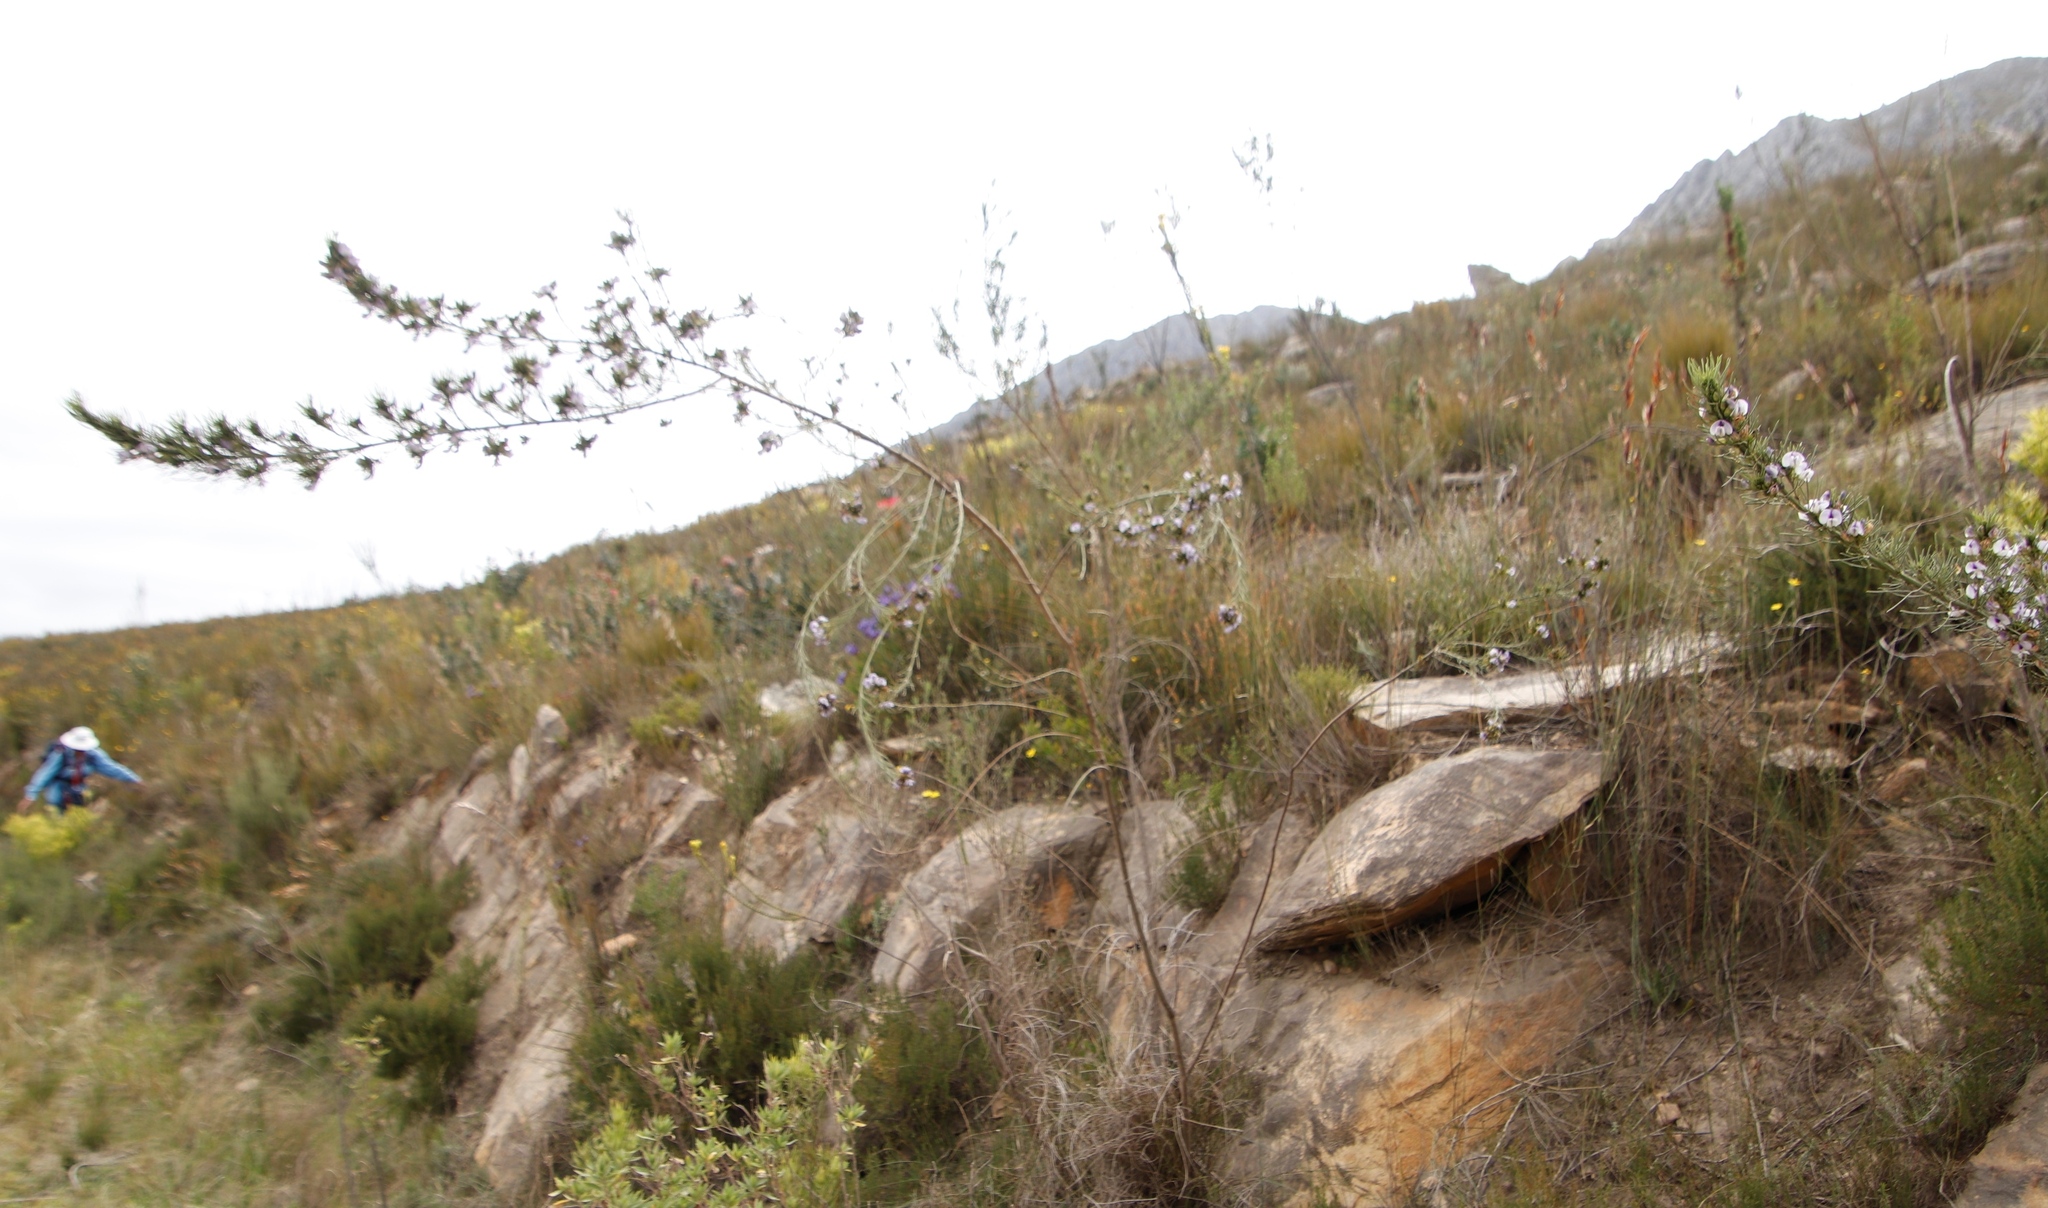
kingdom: Plantae
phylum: Tracheophyta
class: Magnoliopsida
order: Fabales
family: Fabaceae
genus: Psoralea
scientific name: Psoralea
